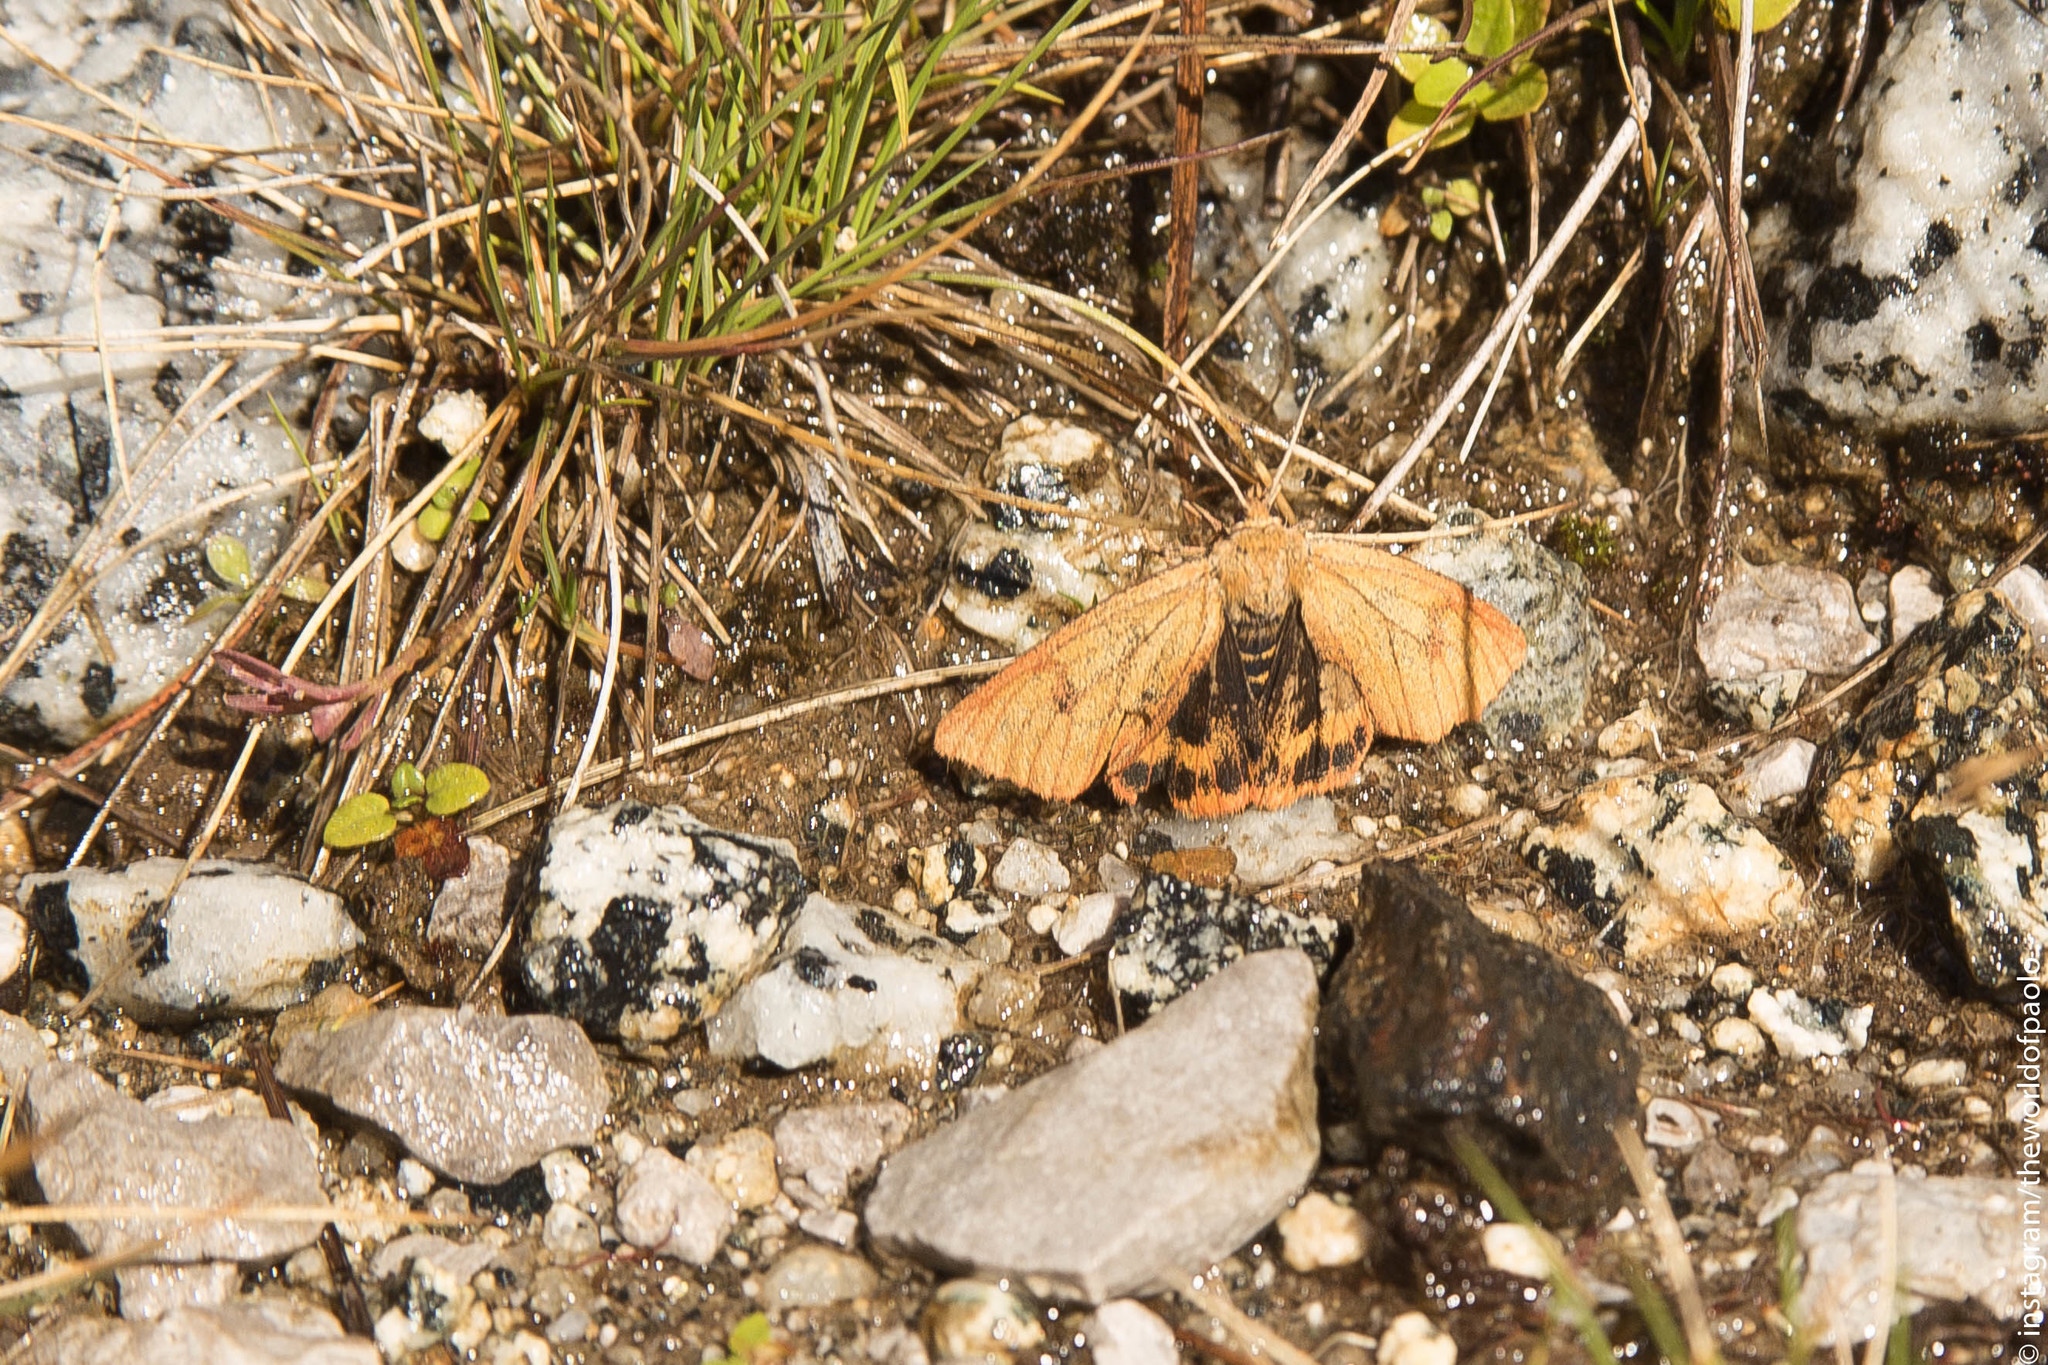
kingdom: Animalia
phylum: Arthropoda
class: Insecta
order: Lepidoptera
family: Erebidae
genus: Diacrisia
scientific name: Diacrisia sannio
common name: Clouded buff
